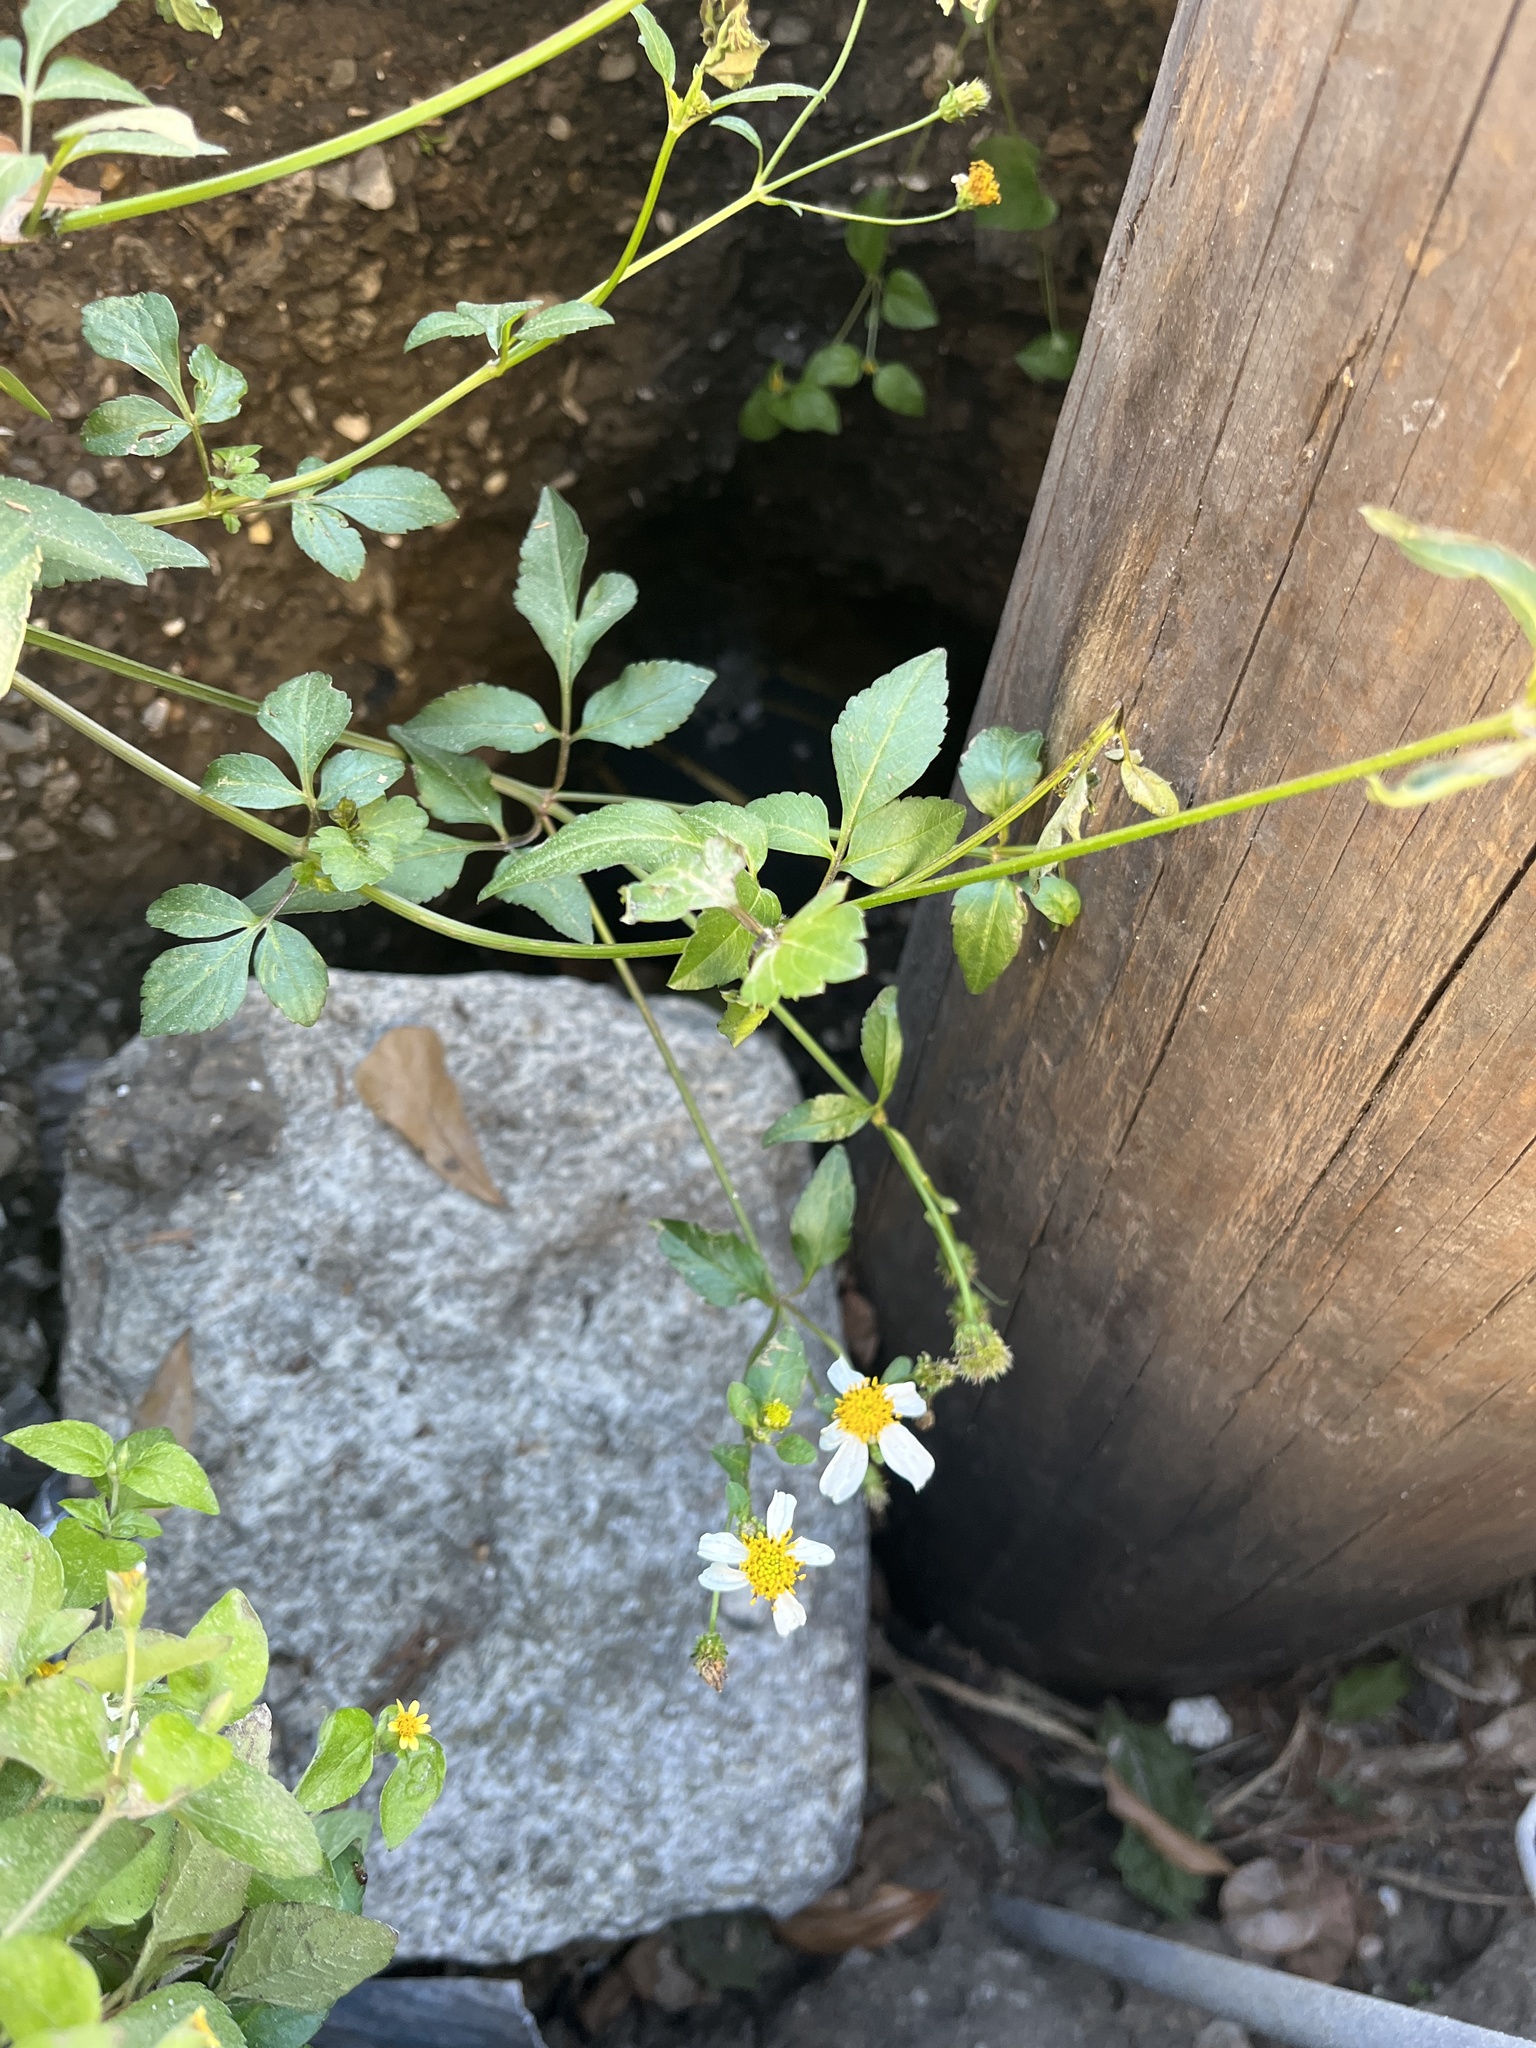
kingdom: Plantae
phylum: Tracheophyta
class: Magnoliopsida
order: Asterales
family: Asteraceae
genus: Bidens
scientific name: Bidens alba
